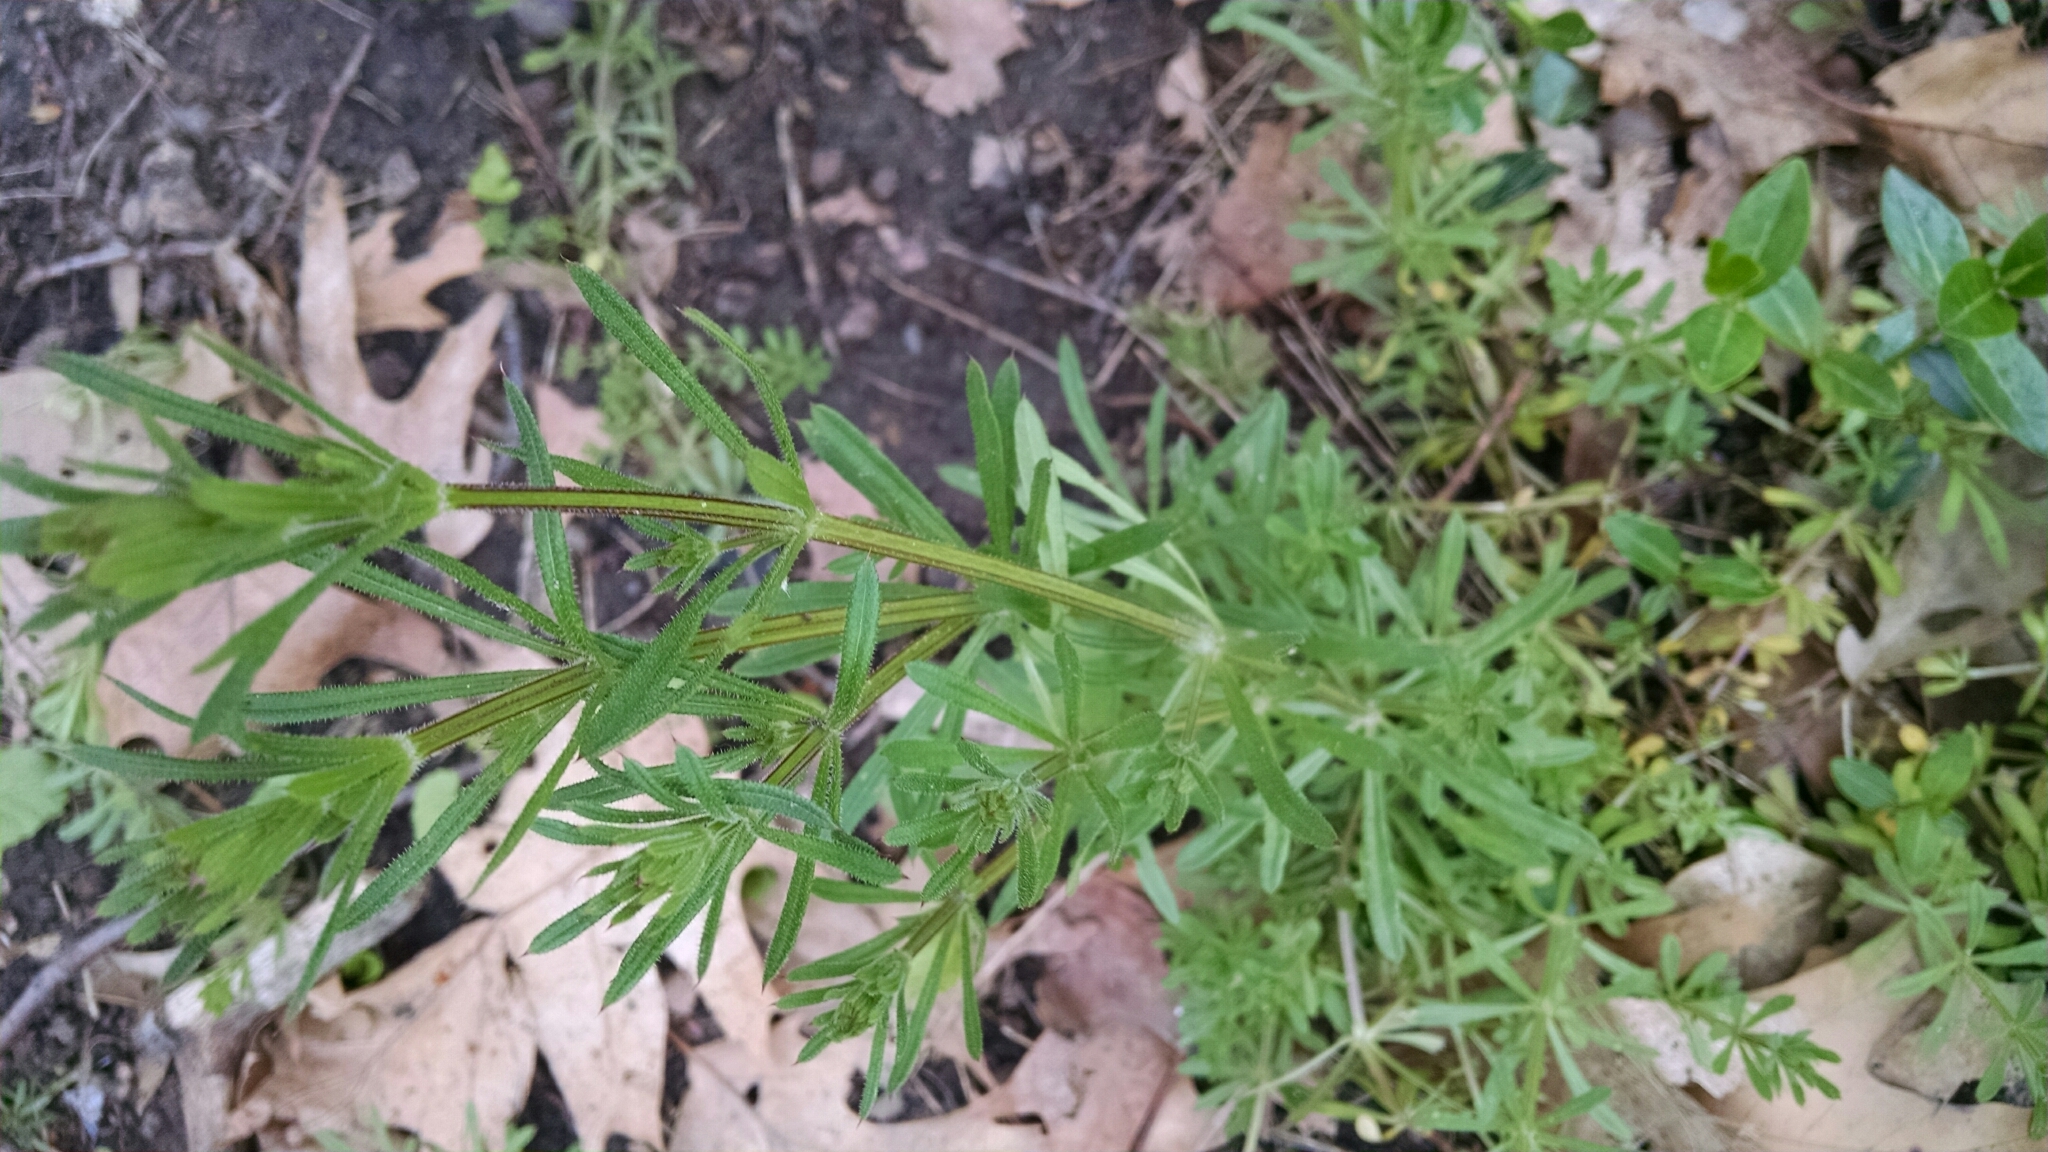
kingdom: Plantae
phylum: Tracheophyta
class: Magnoliopsida
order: Gentianales
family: Rubiaceae
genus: Galium
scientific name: Galium aparine
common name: Cleavers
